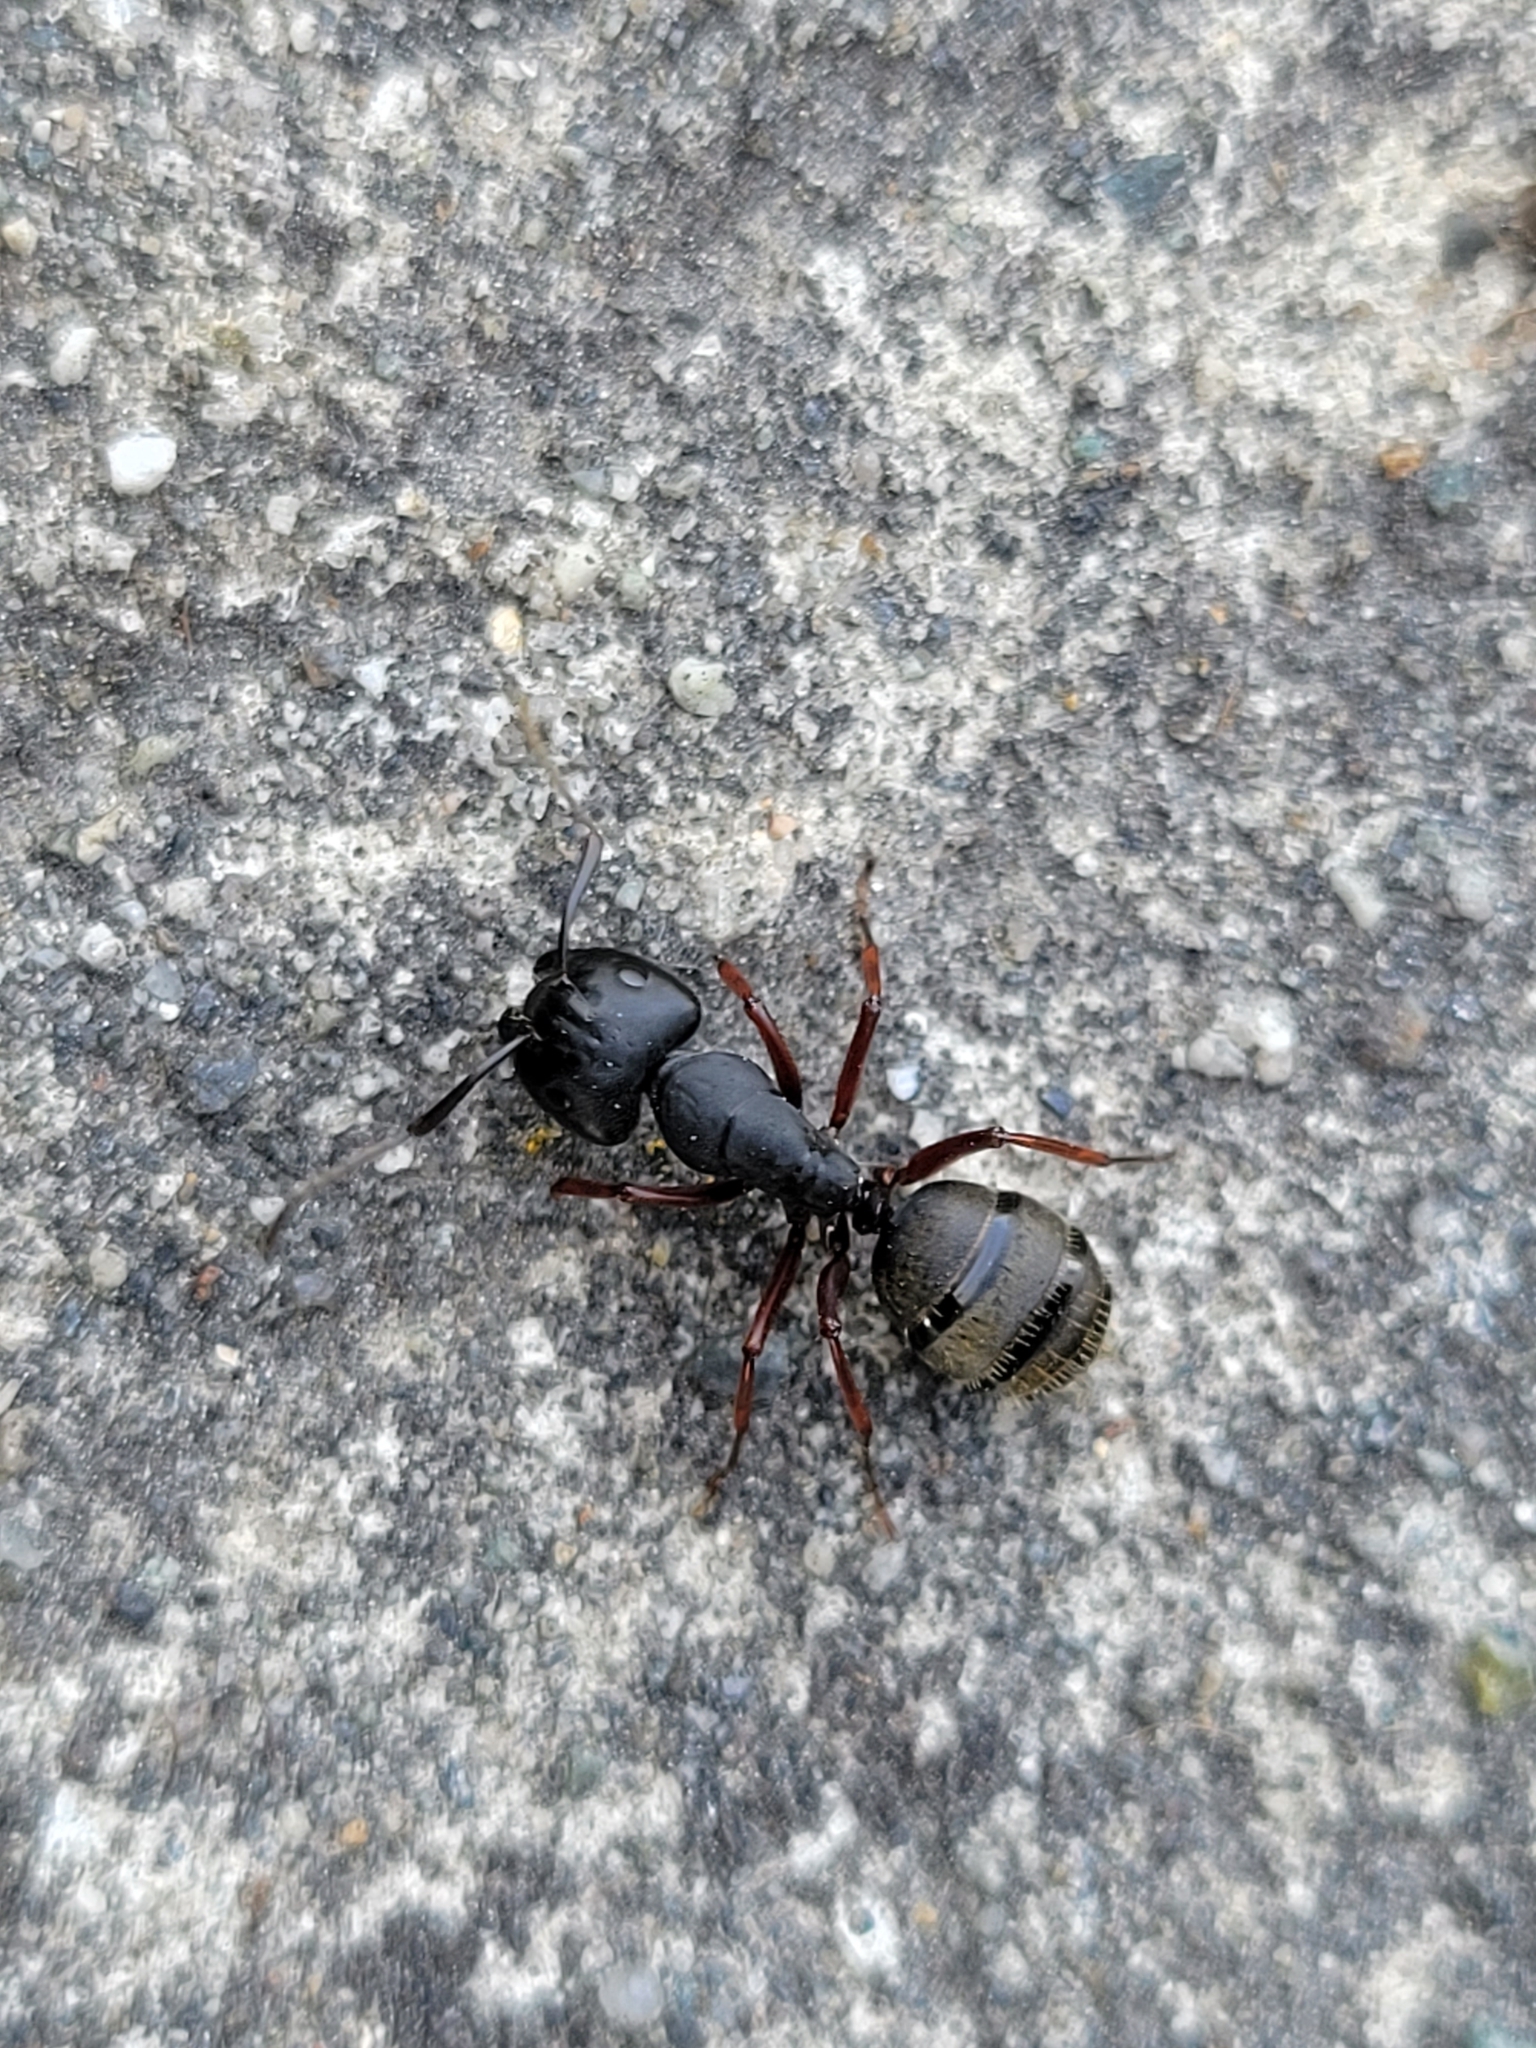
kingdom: Animalia
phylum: Arthropoda
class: Insecta
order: Hymenoptera
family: Formicidae
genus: Camponotus
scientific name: Camponotus modoc
